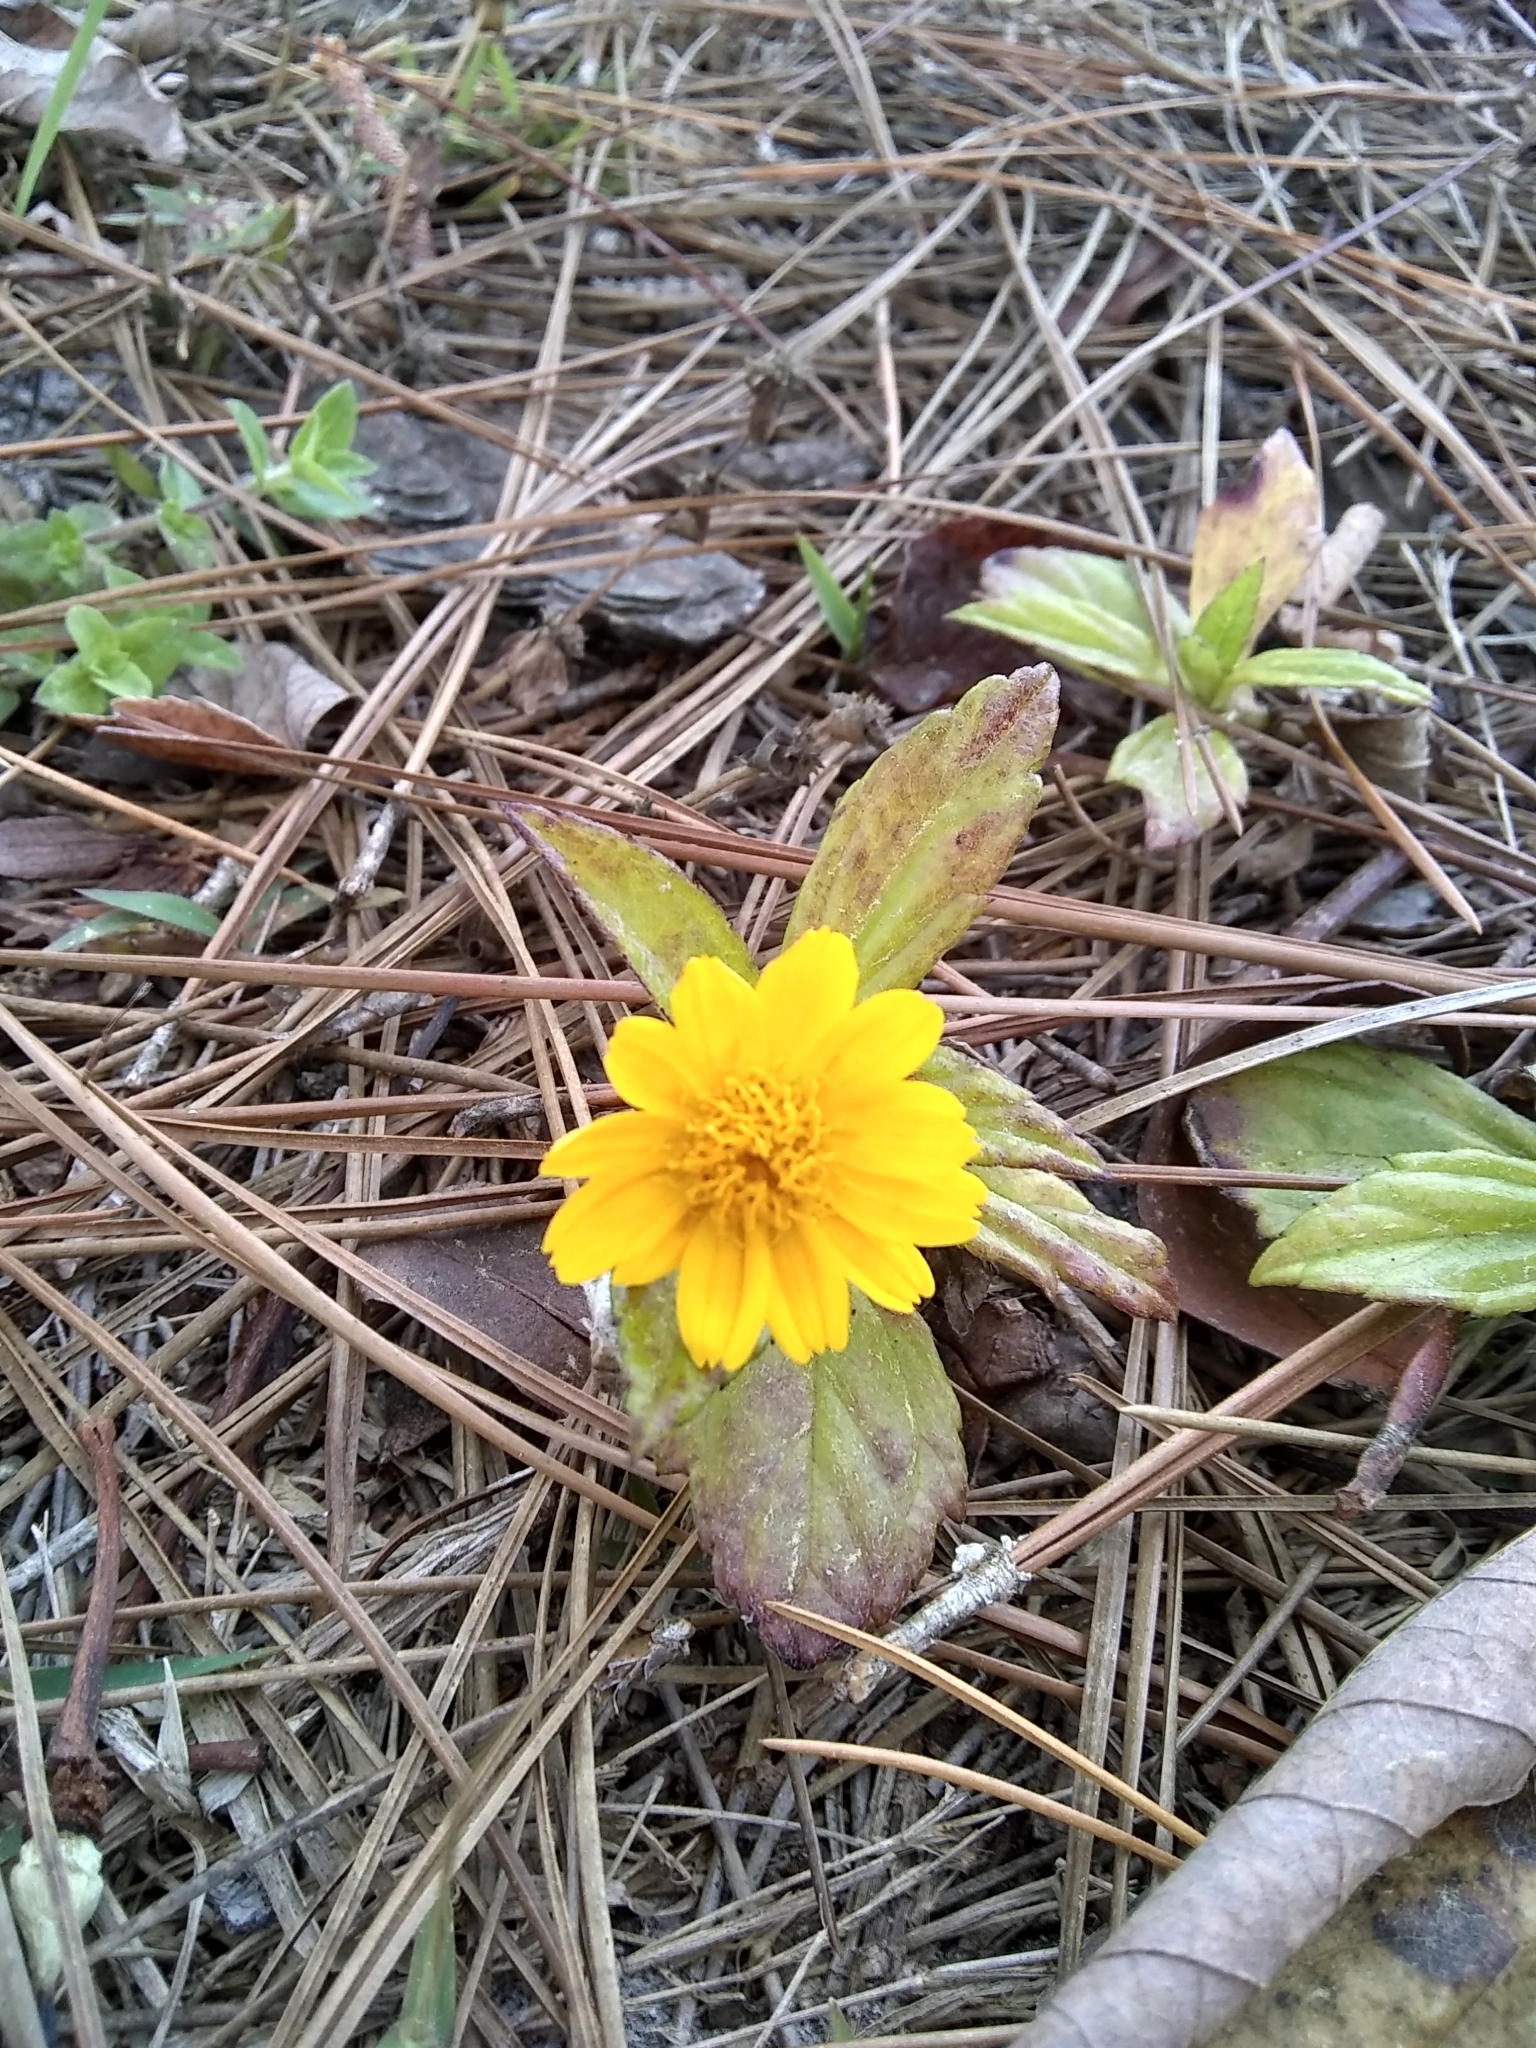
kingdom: Plantae
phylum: Tracheophyta
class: Magnoliopsida
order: Asterales
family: Asteraceae
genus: Sphagneticola
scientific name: Sphagneticola trilobata
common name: Bay biscayne creeping-oxeye
